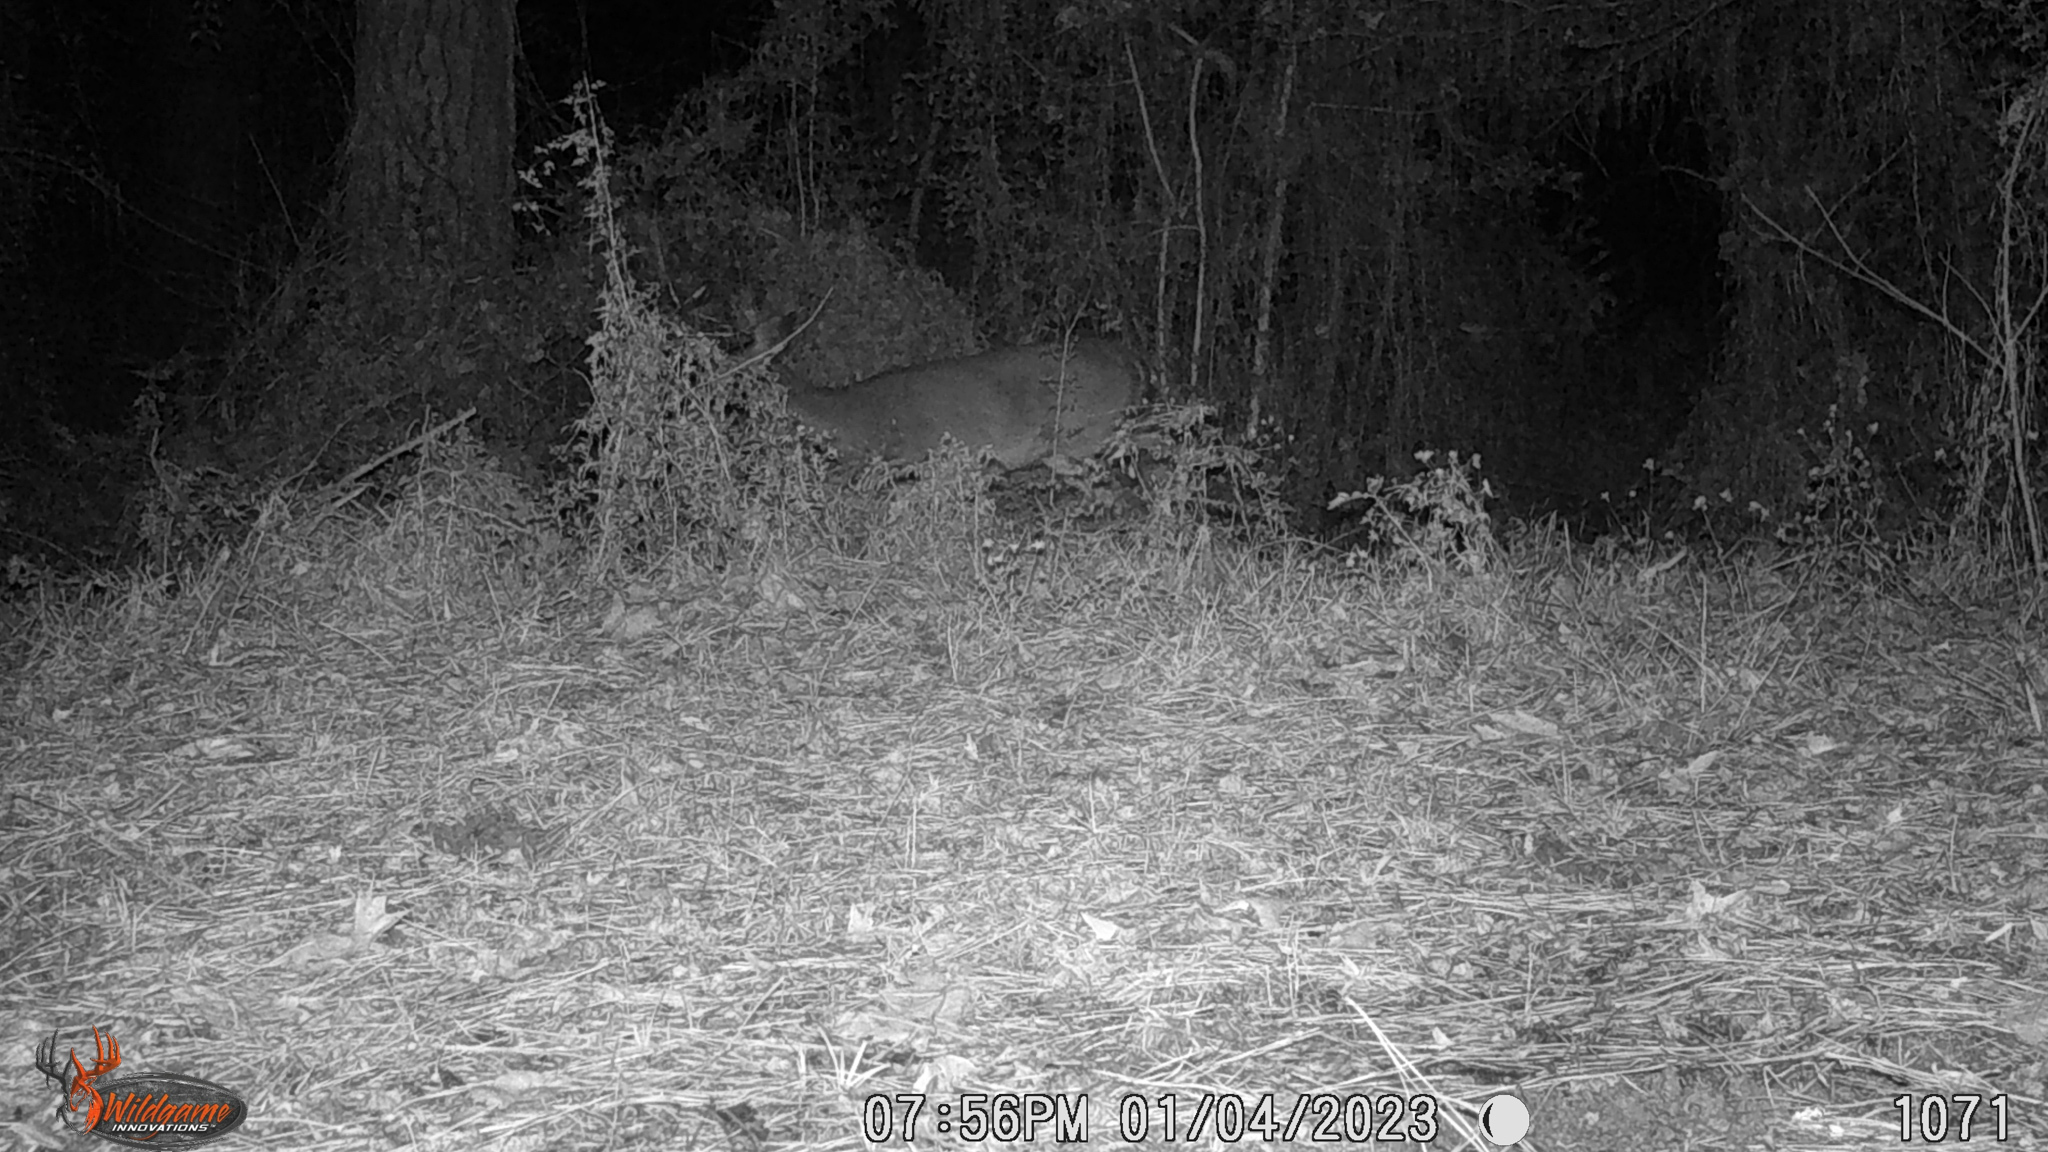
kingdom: Animalia
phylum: Chordata
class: Mammalia
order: Artiodactyla
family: Cervidae
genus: Odocoileus
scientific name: Odocoileus virginianus
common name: White-tailed deer
